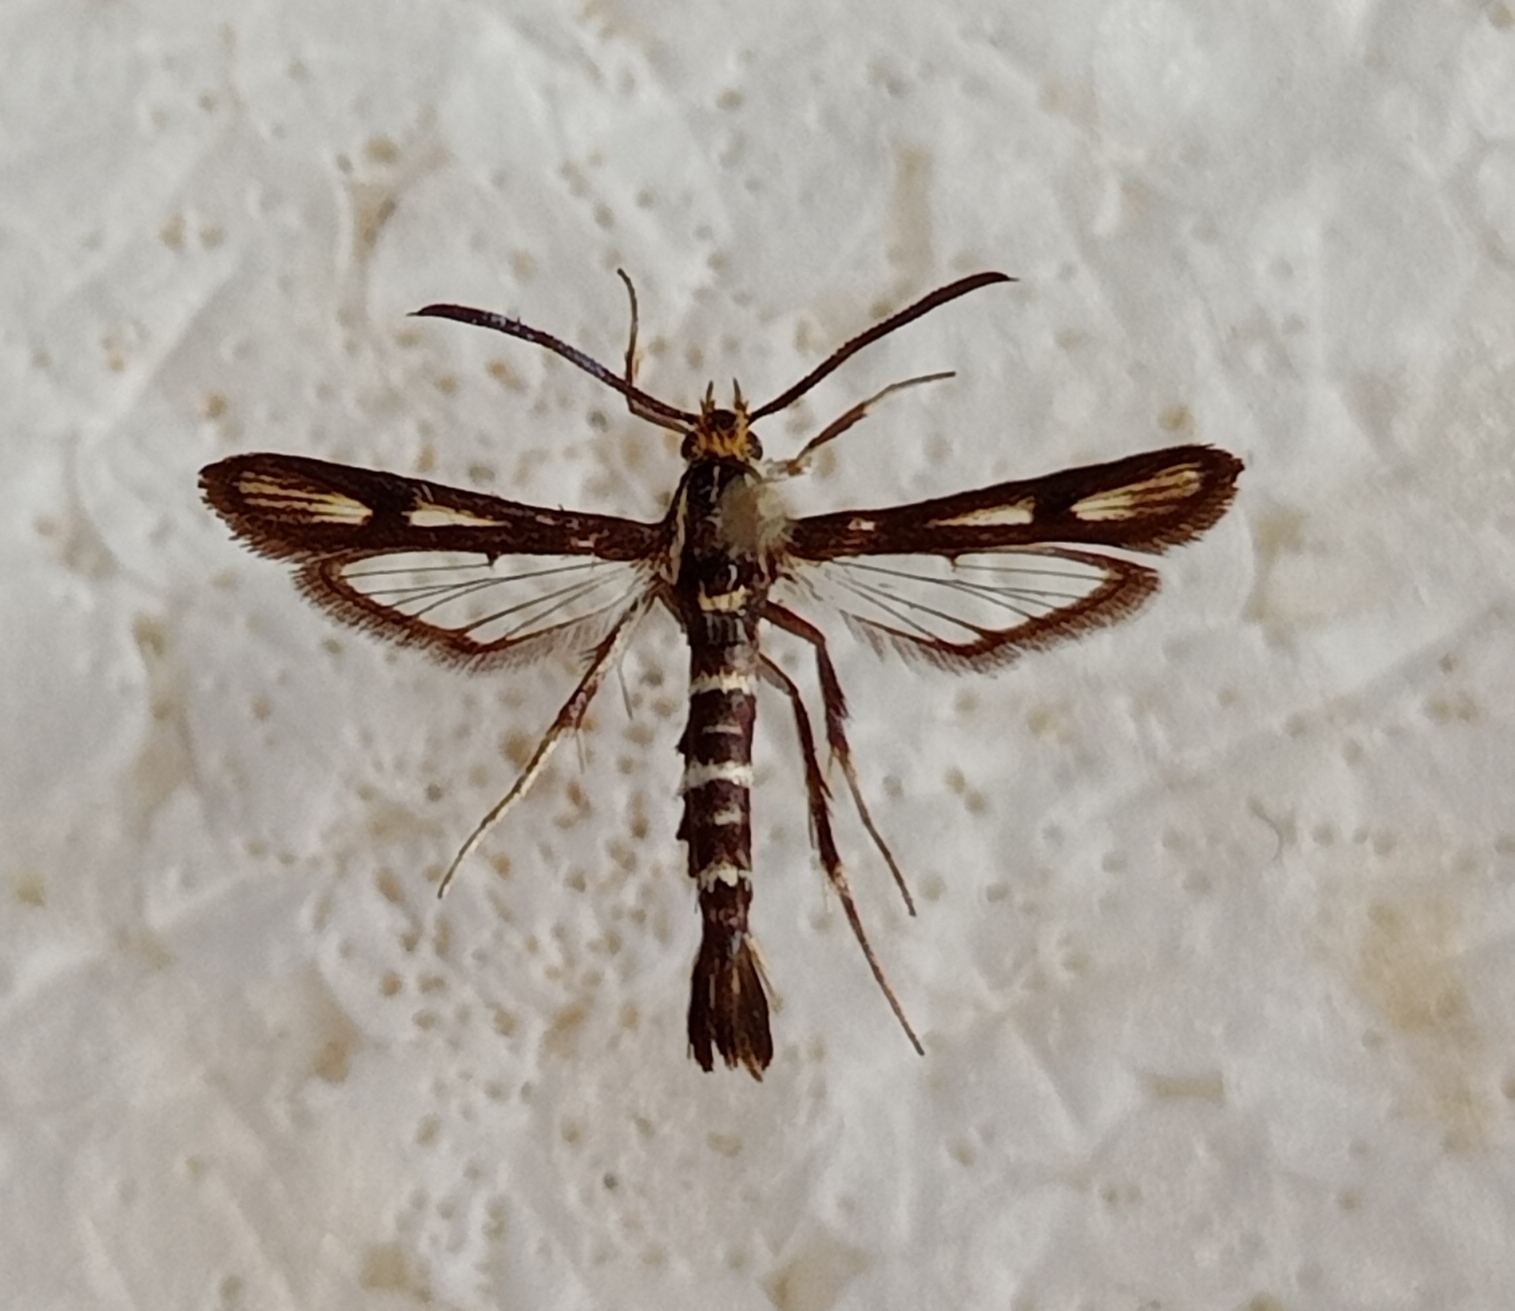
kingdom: Animalia
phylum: Arthropoda
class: Insecta
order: Lepidoptera
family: Sesiidae
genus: Chamaesphecia
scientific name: Chamaesphecia alysoniformis
